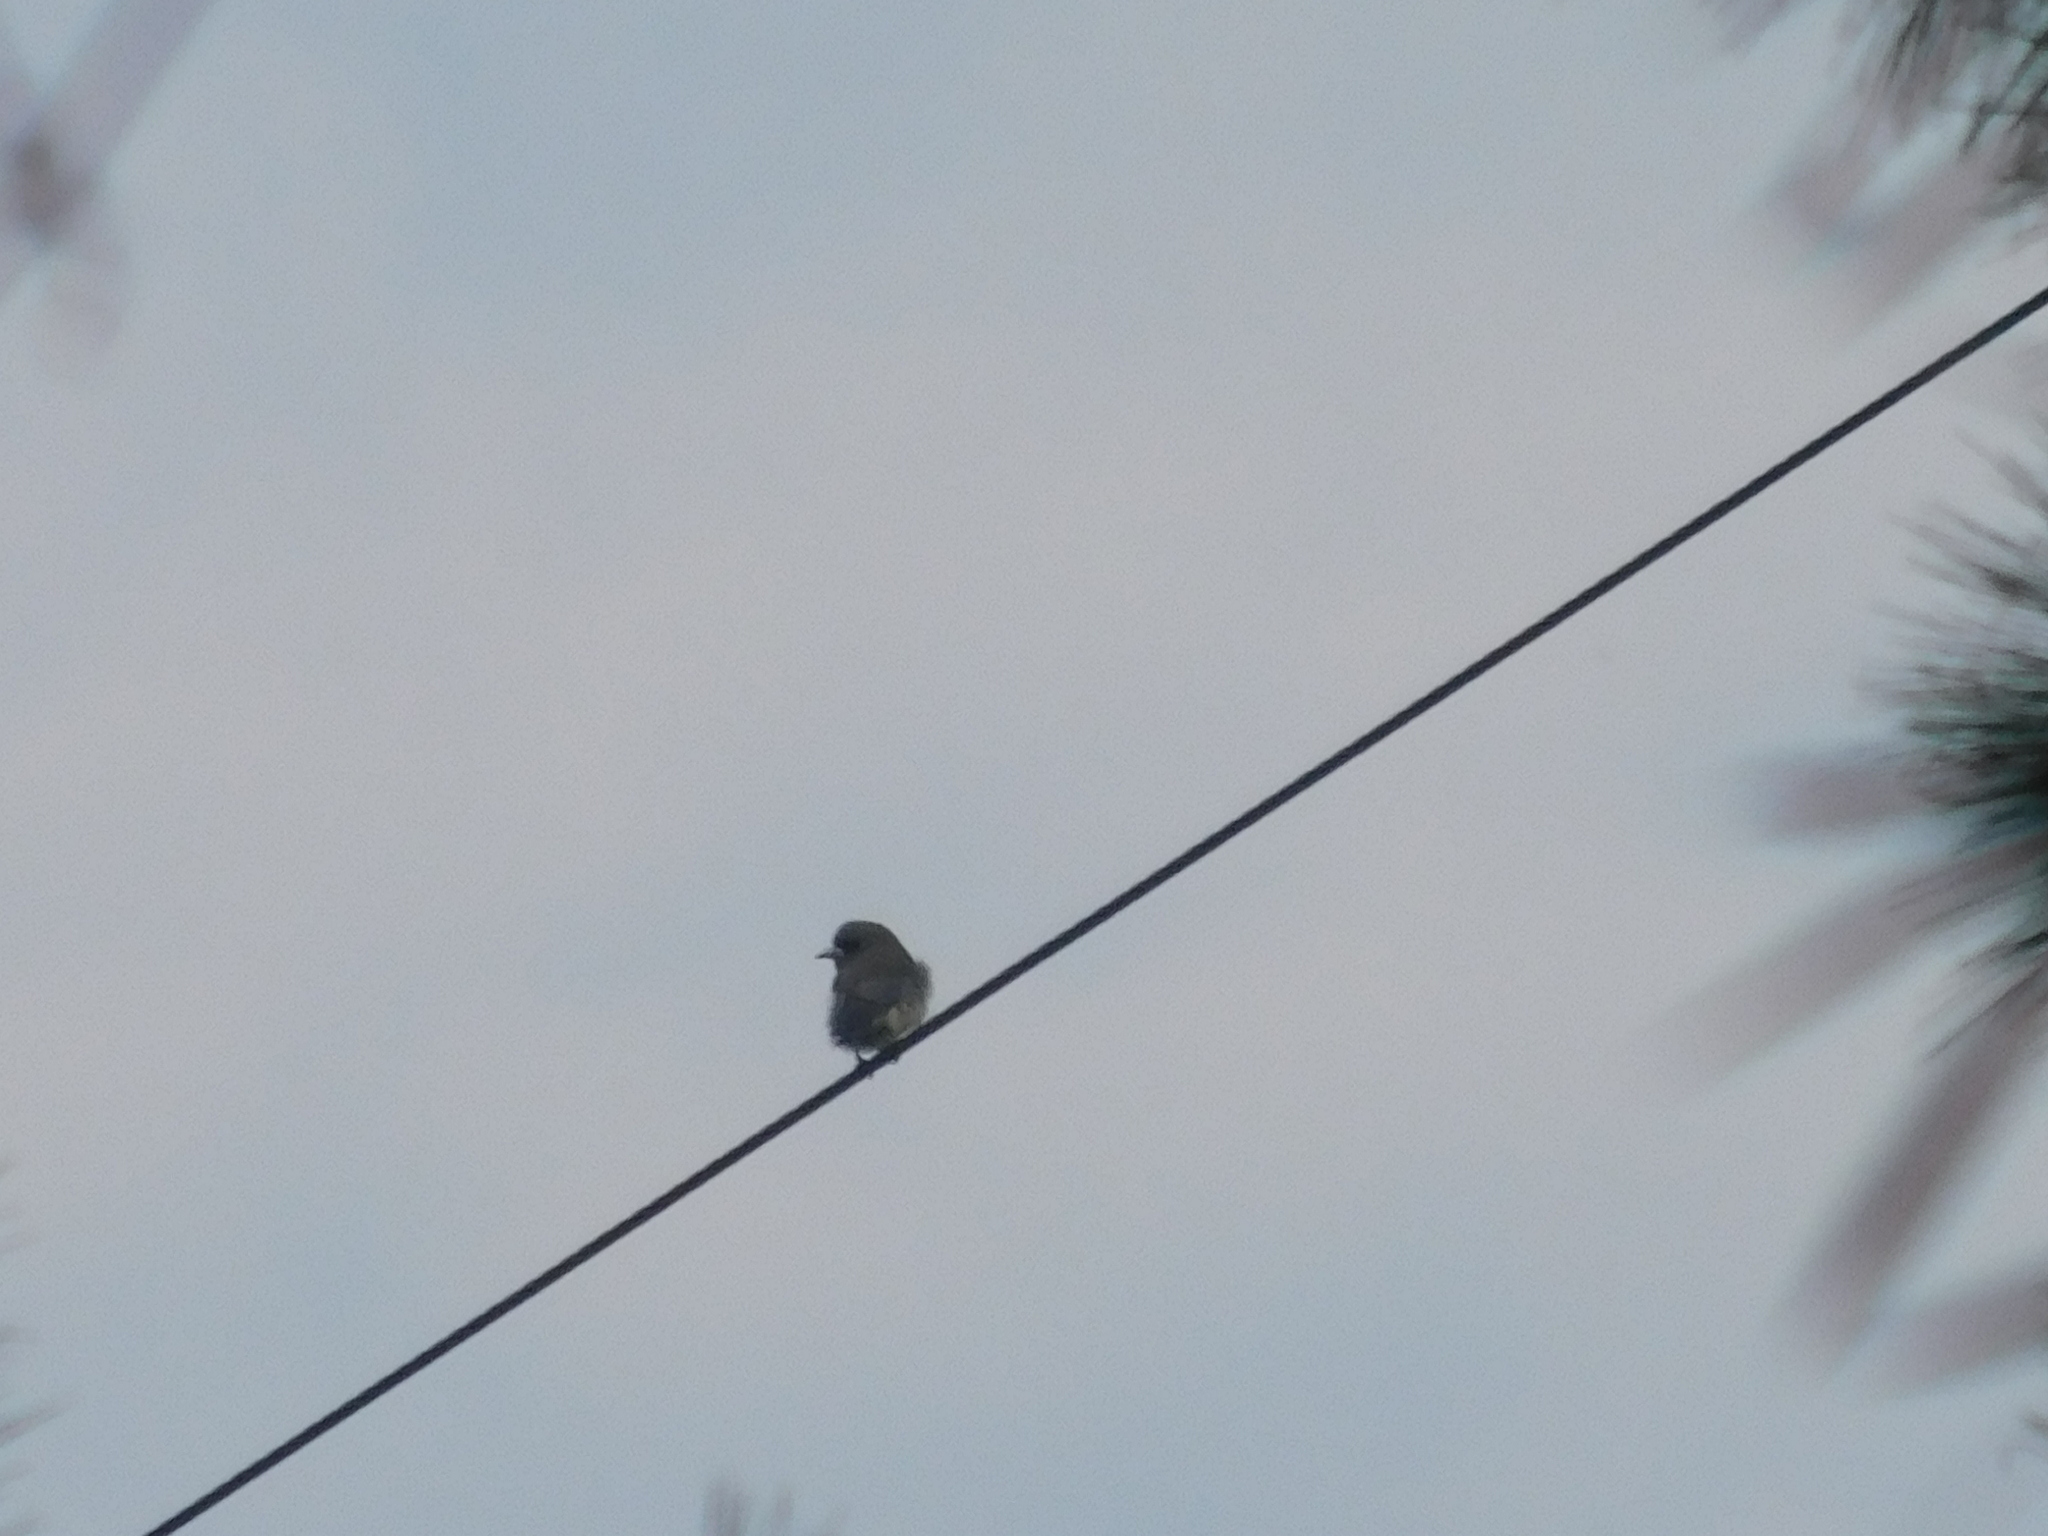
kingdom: Animalia
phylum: Chordata
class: Aves
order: Passeriformes
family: Artamidae
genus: Artamus
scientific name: Artamus leucoryn
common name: White-breasted woodswallow
